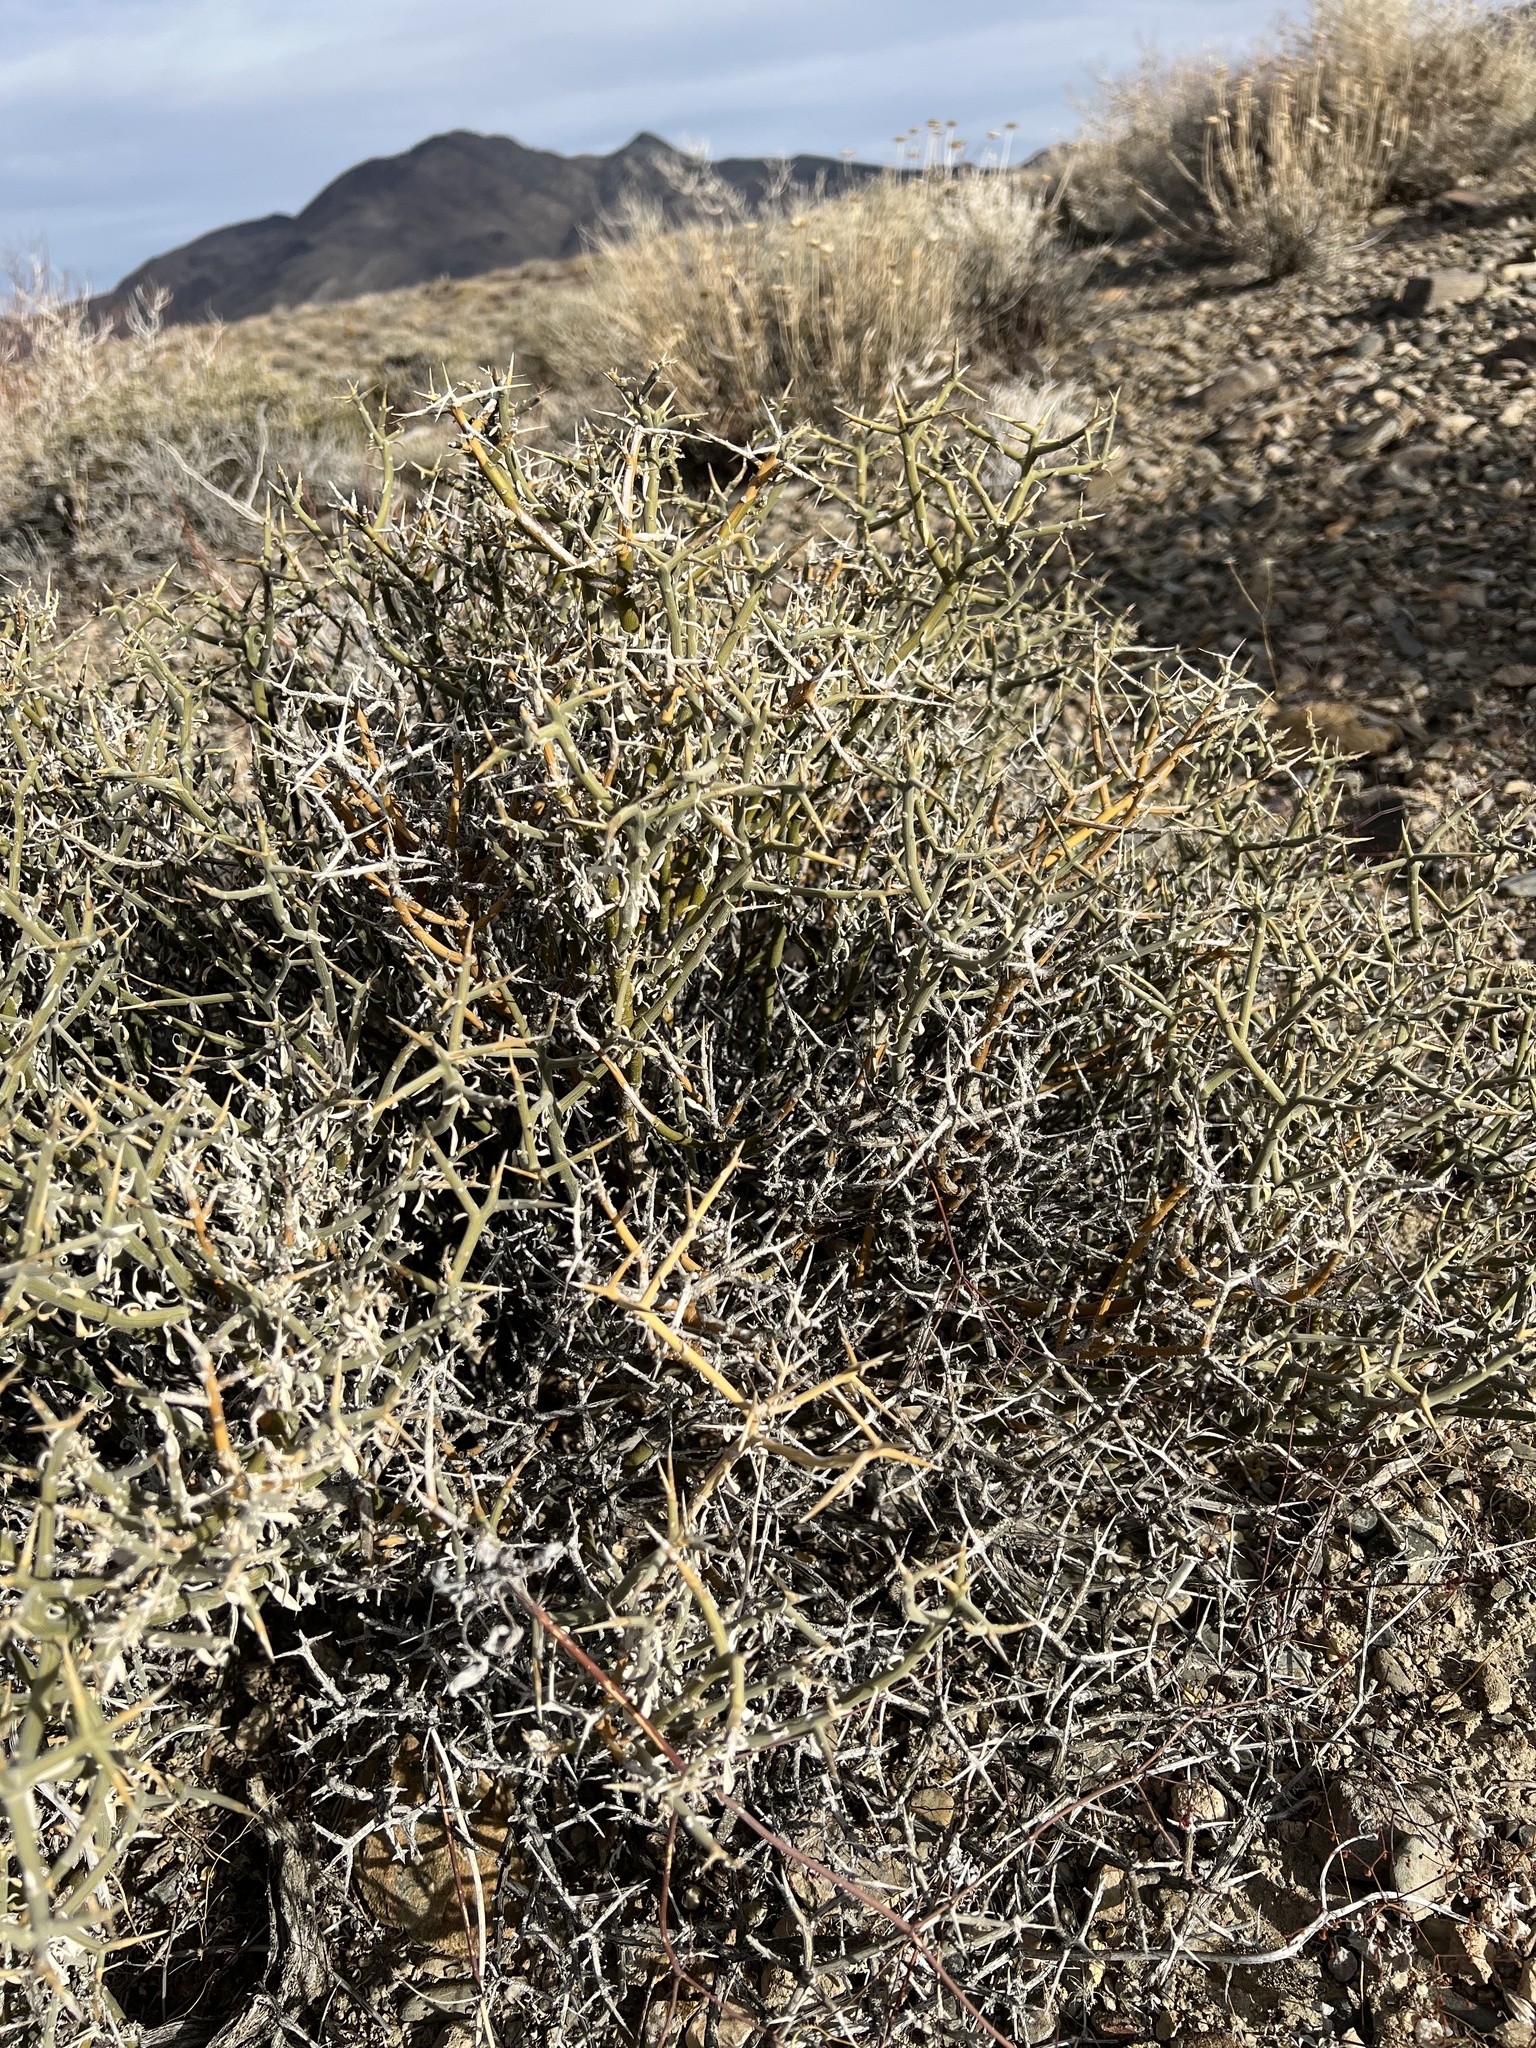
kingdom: Plantae
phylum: Tracheophyta
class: Magnoliopsida
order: Lamiales
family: Oleaceae
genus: Menodora
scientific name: Menodora spinescens
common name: Spiny menodora
